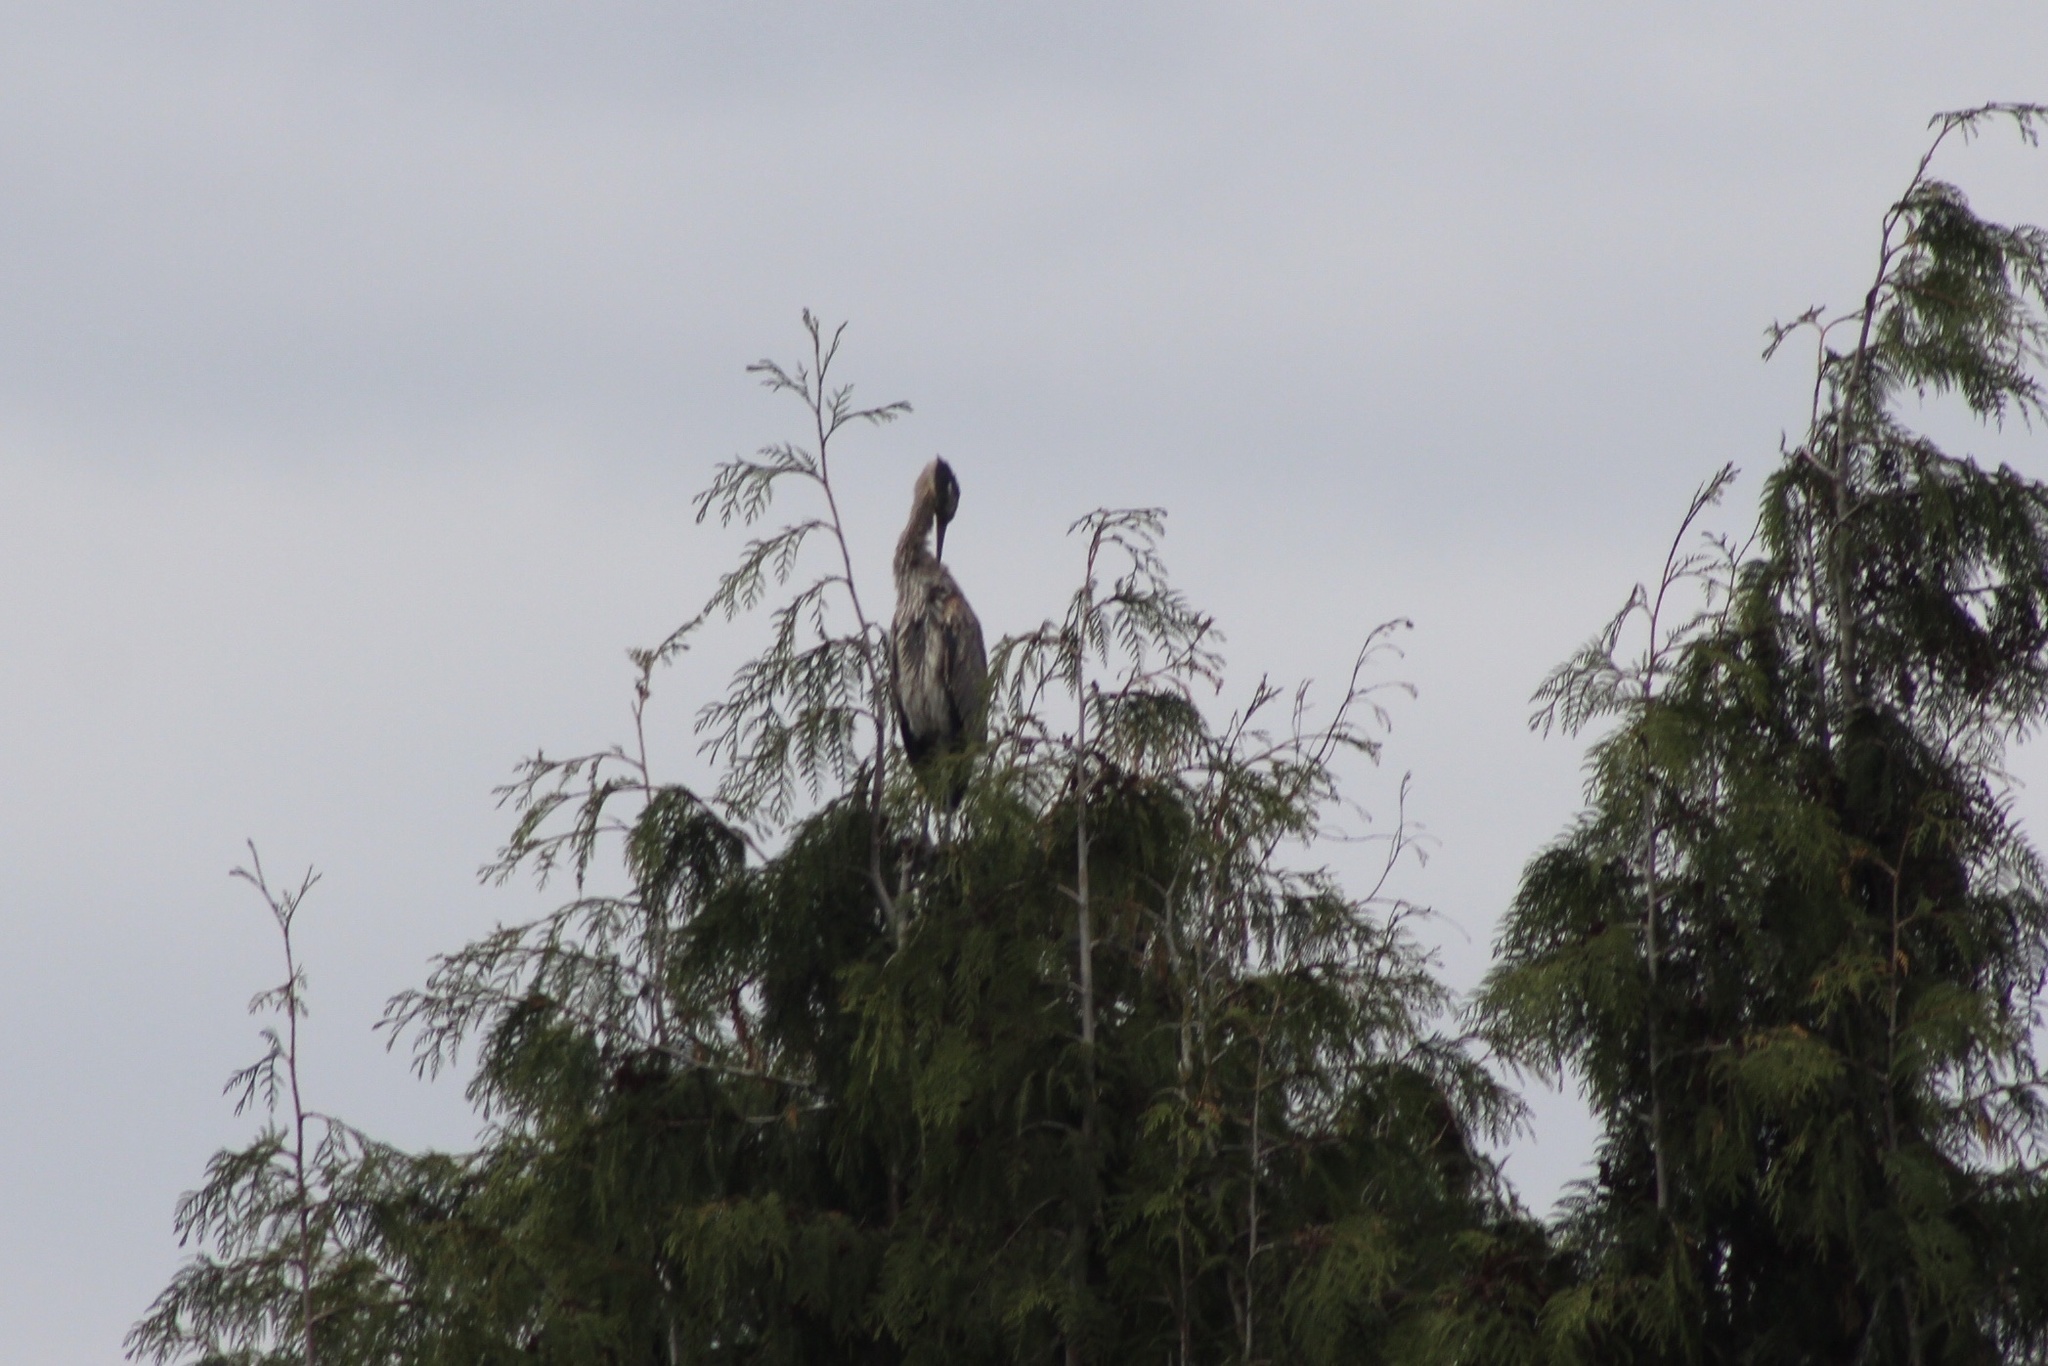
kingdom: Animalia
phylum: Chordata
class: Aves
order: Pelecaniformes
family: Ardeidae
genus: Ardea
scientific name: Ardea herodias
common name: Great blue heron
